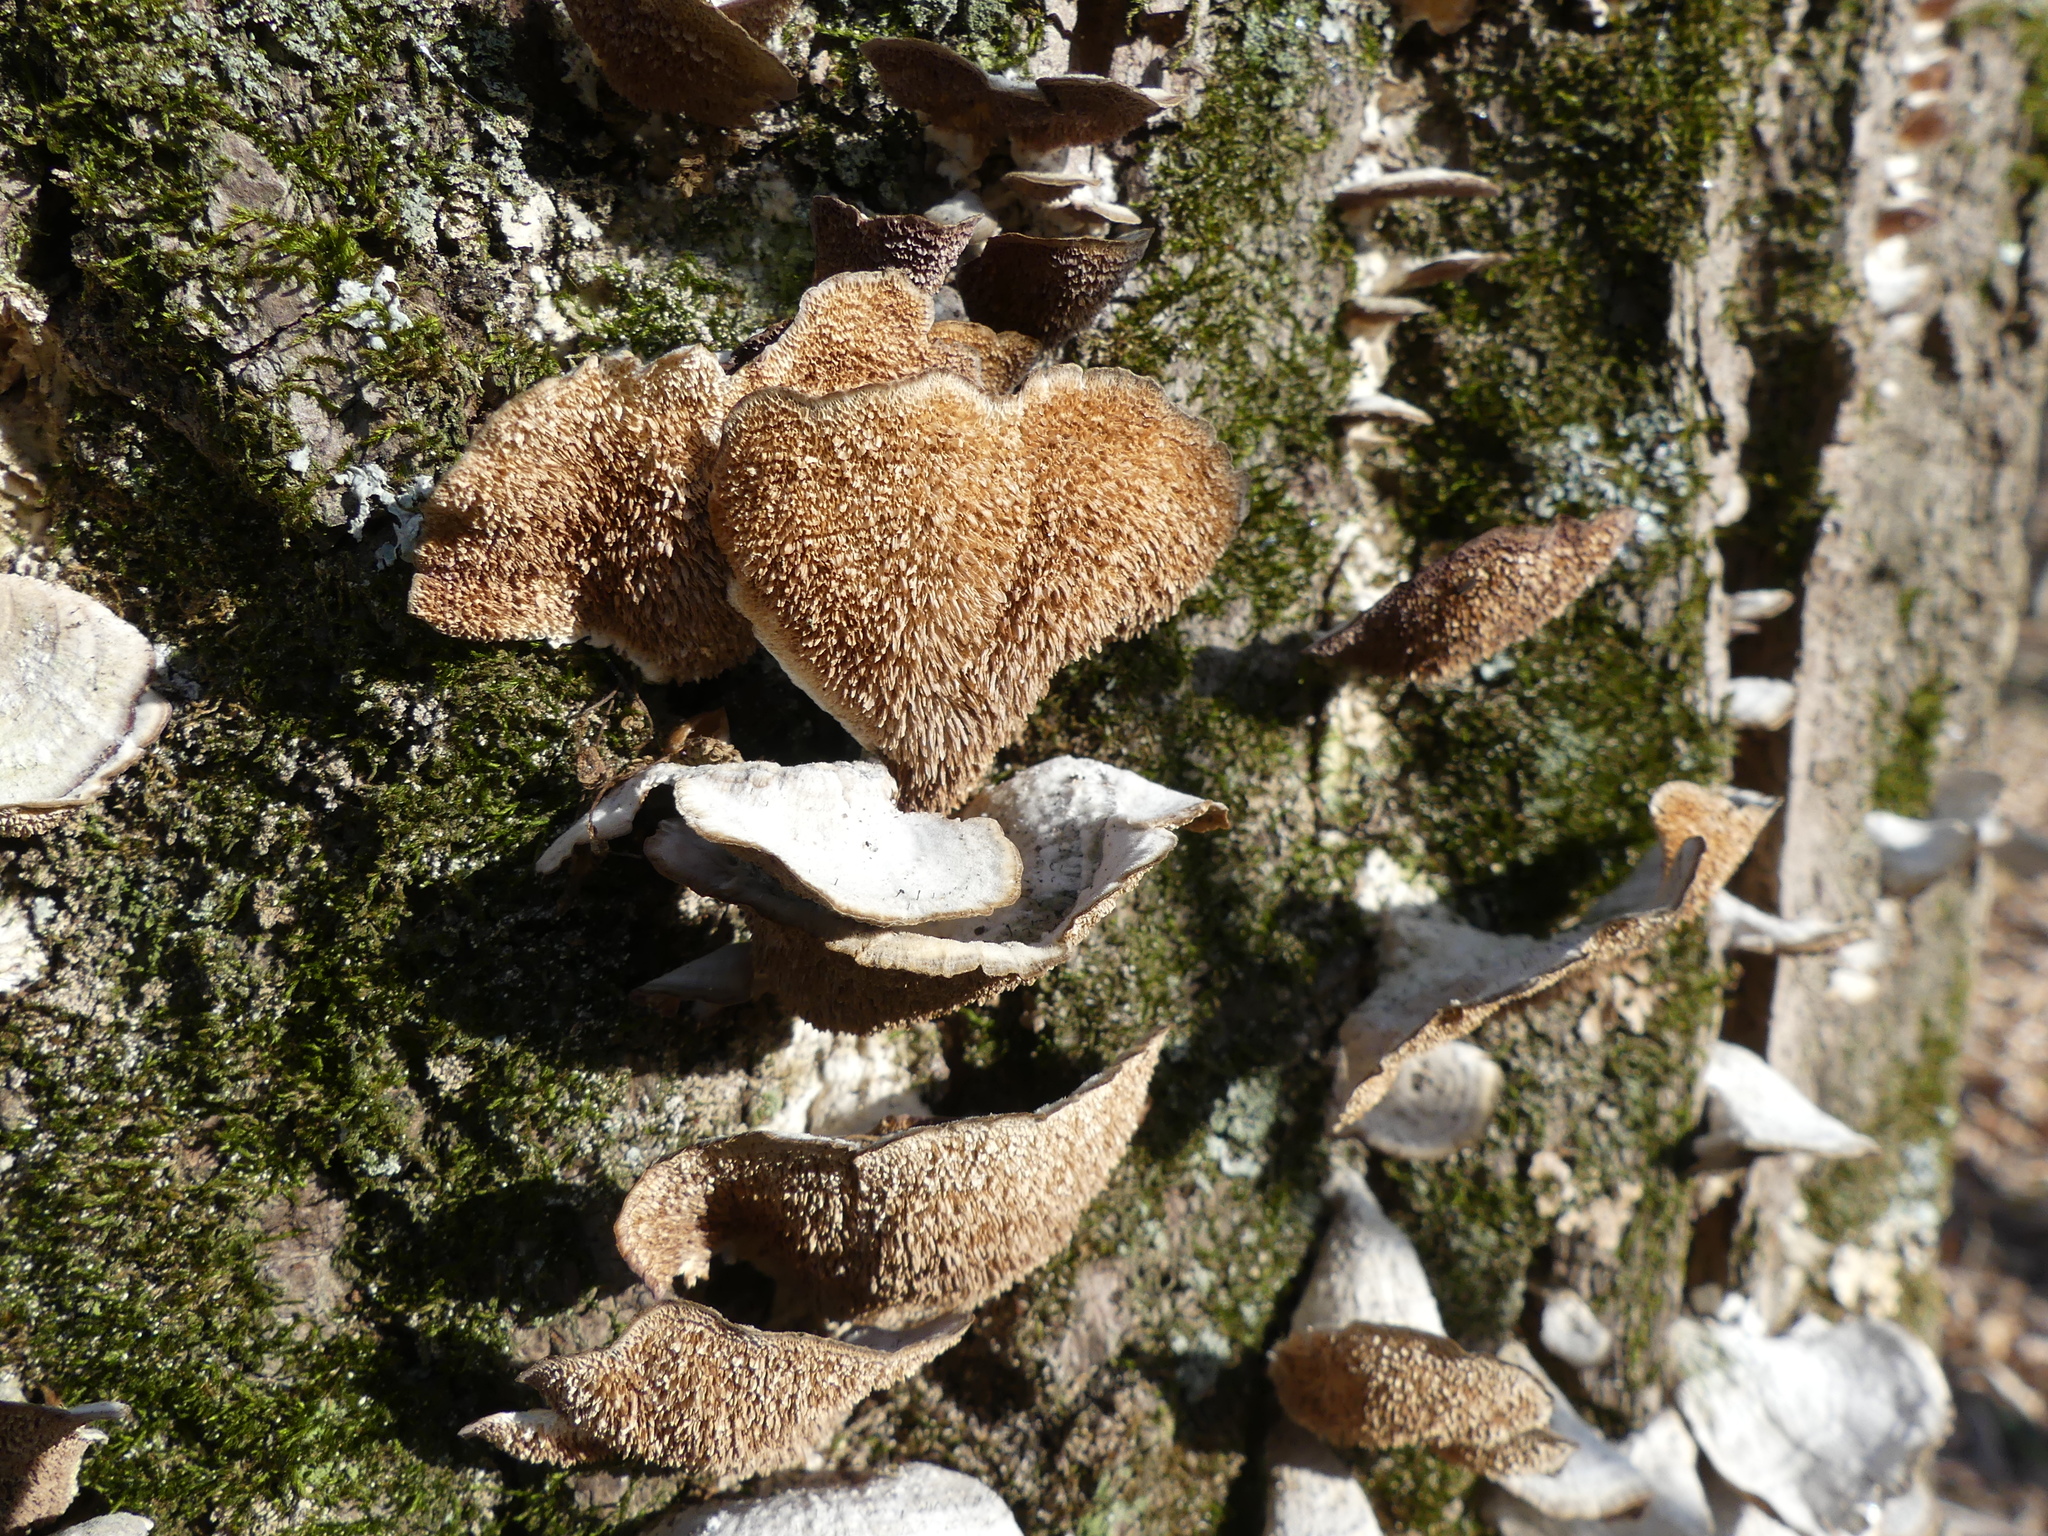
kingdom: Fungi
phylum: Ascomycota
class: Eurotiomycetes
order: Mycocaliciales
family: Mycocaliciaceae
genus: Phaeocalicium
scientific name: Phaeocalicium polyporaeum
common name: Fairy pins
